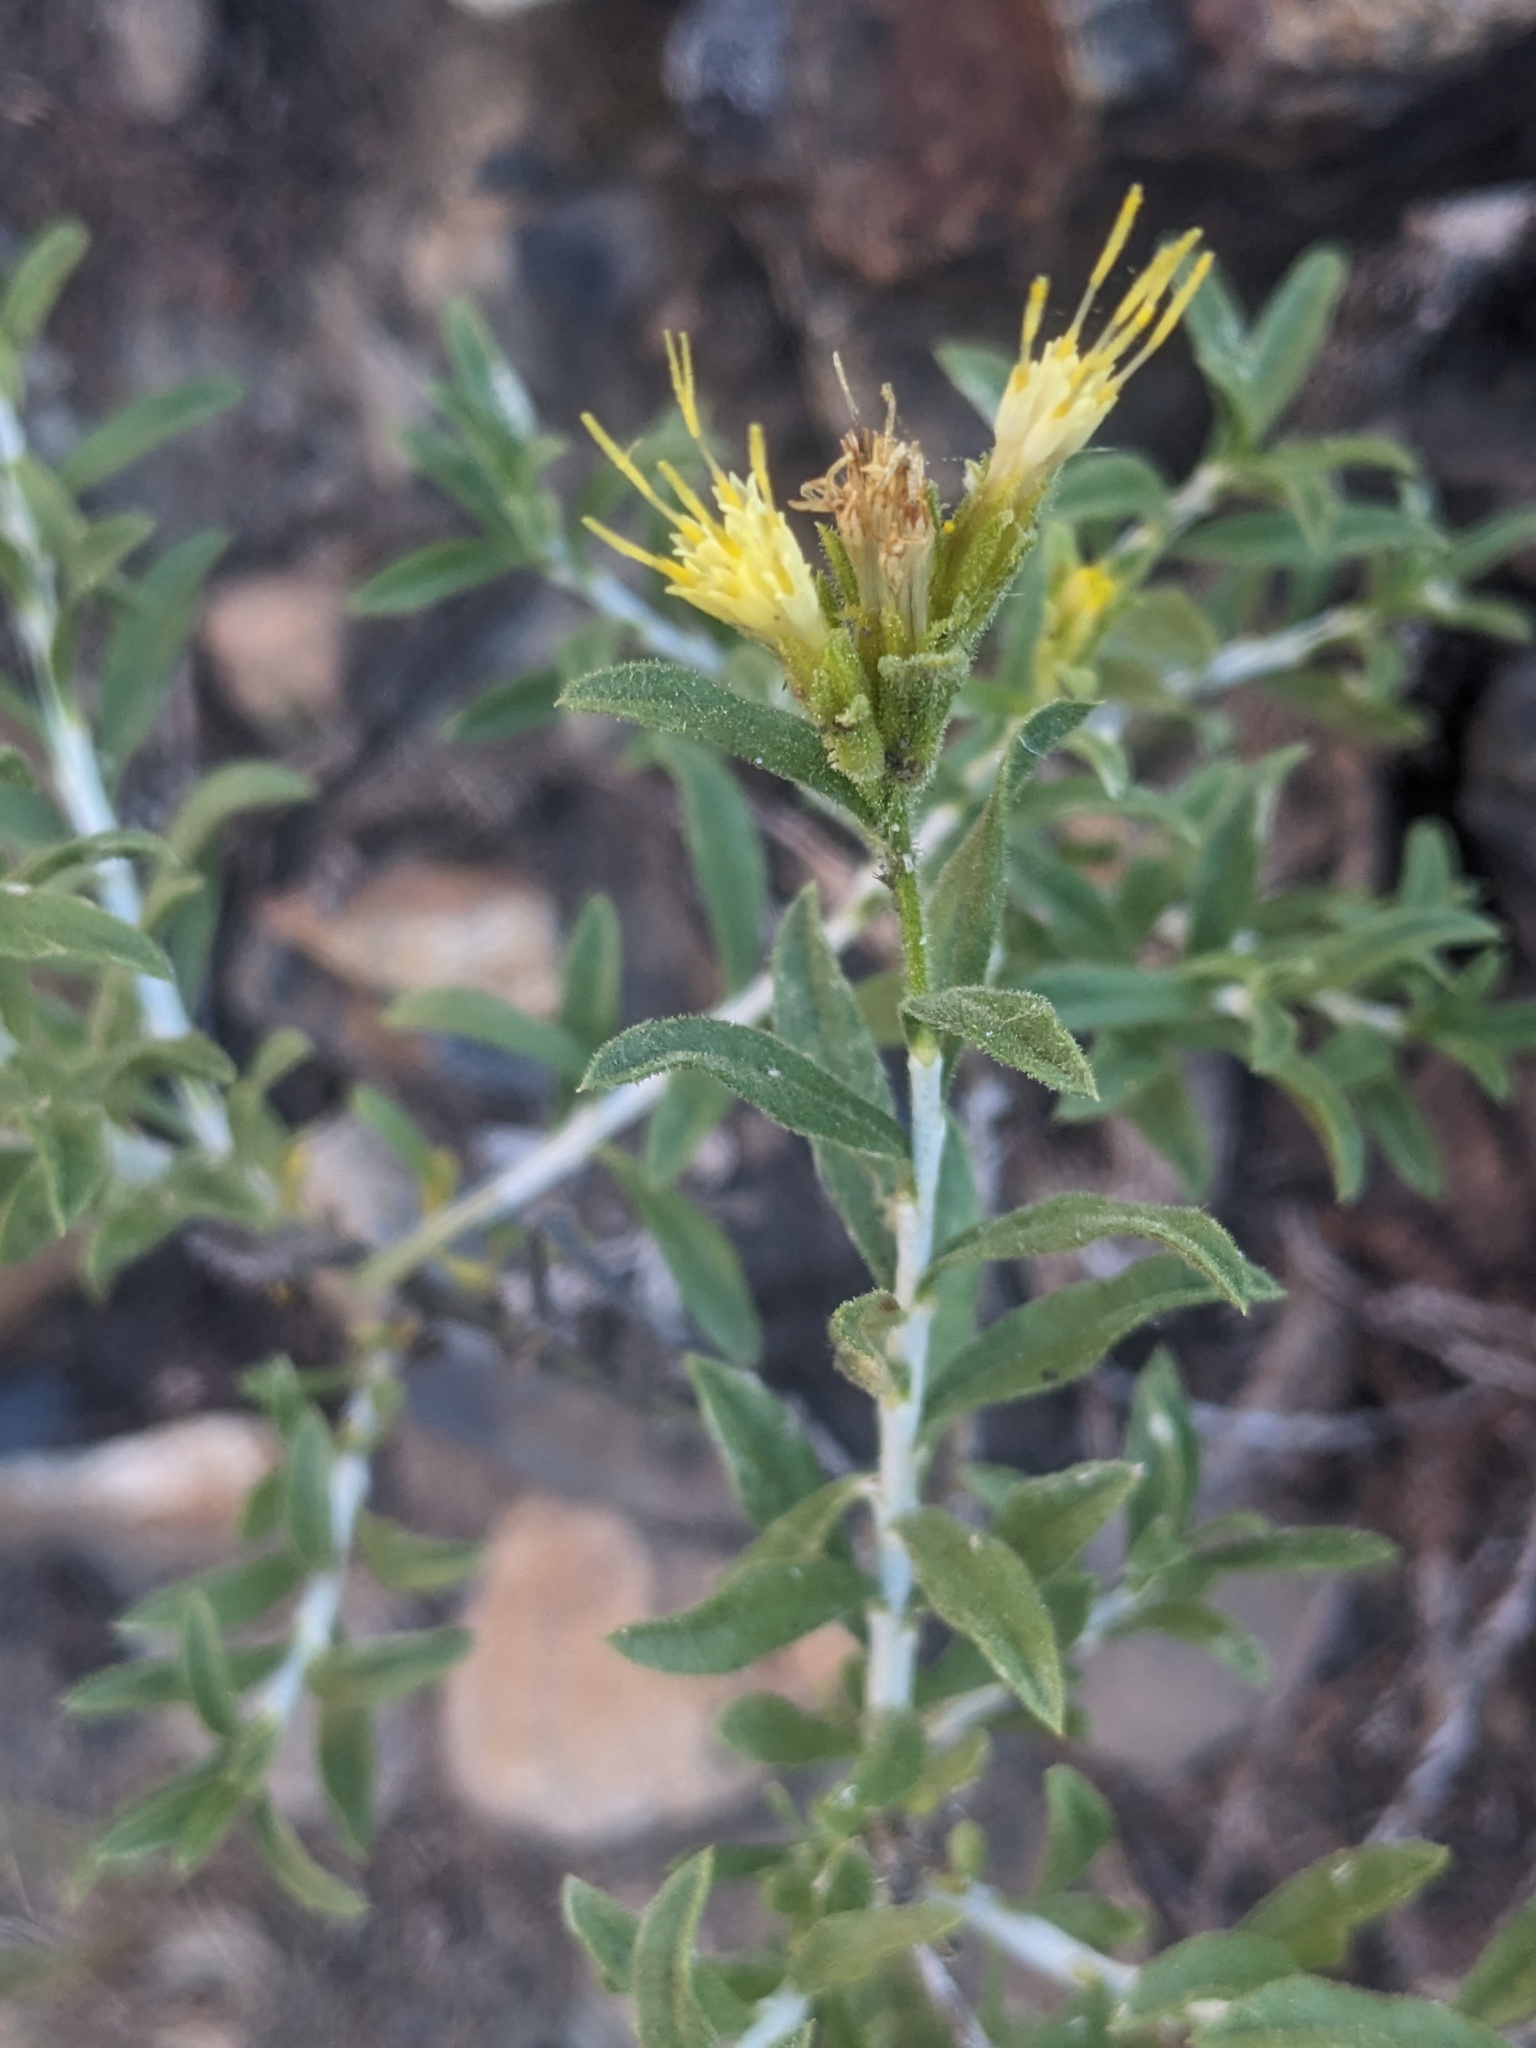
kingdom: Plantae
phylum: Tracheophyta
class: Magnoliopsida
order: Asterales
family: Asteraceae
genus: Ericameria
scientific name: Ericameria discoidea
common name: Sharp-scale goldenweed
